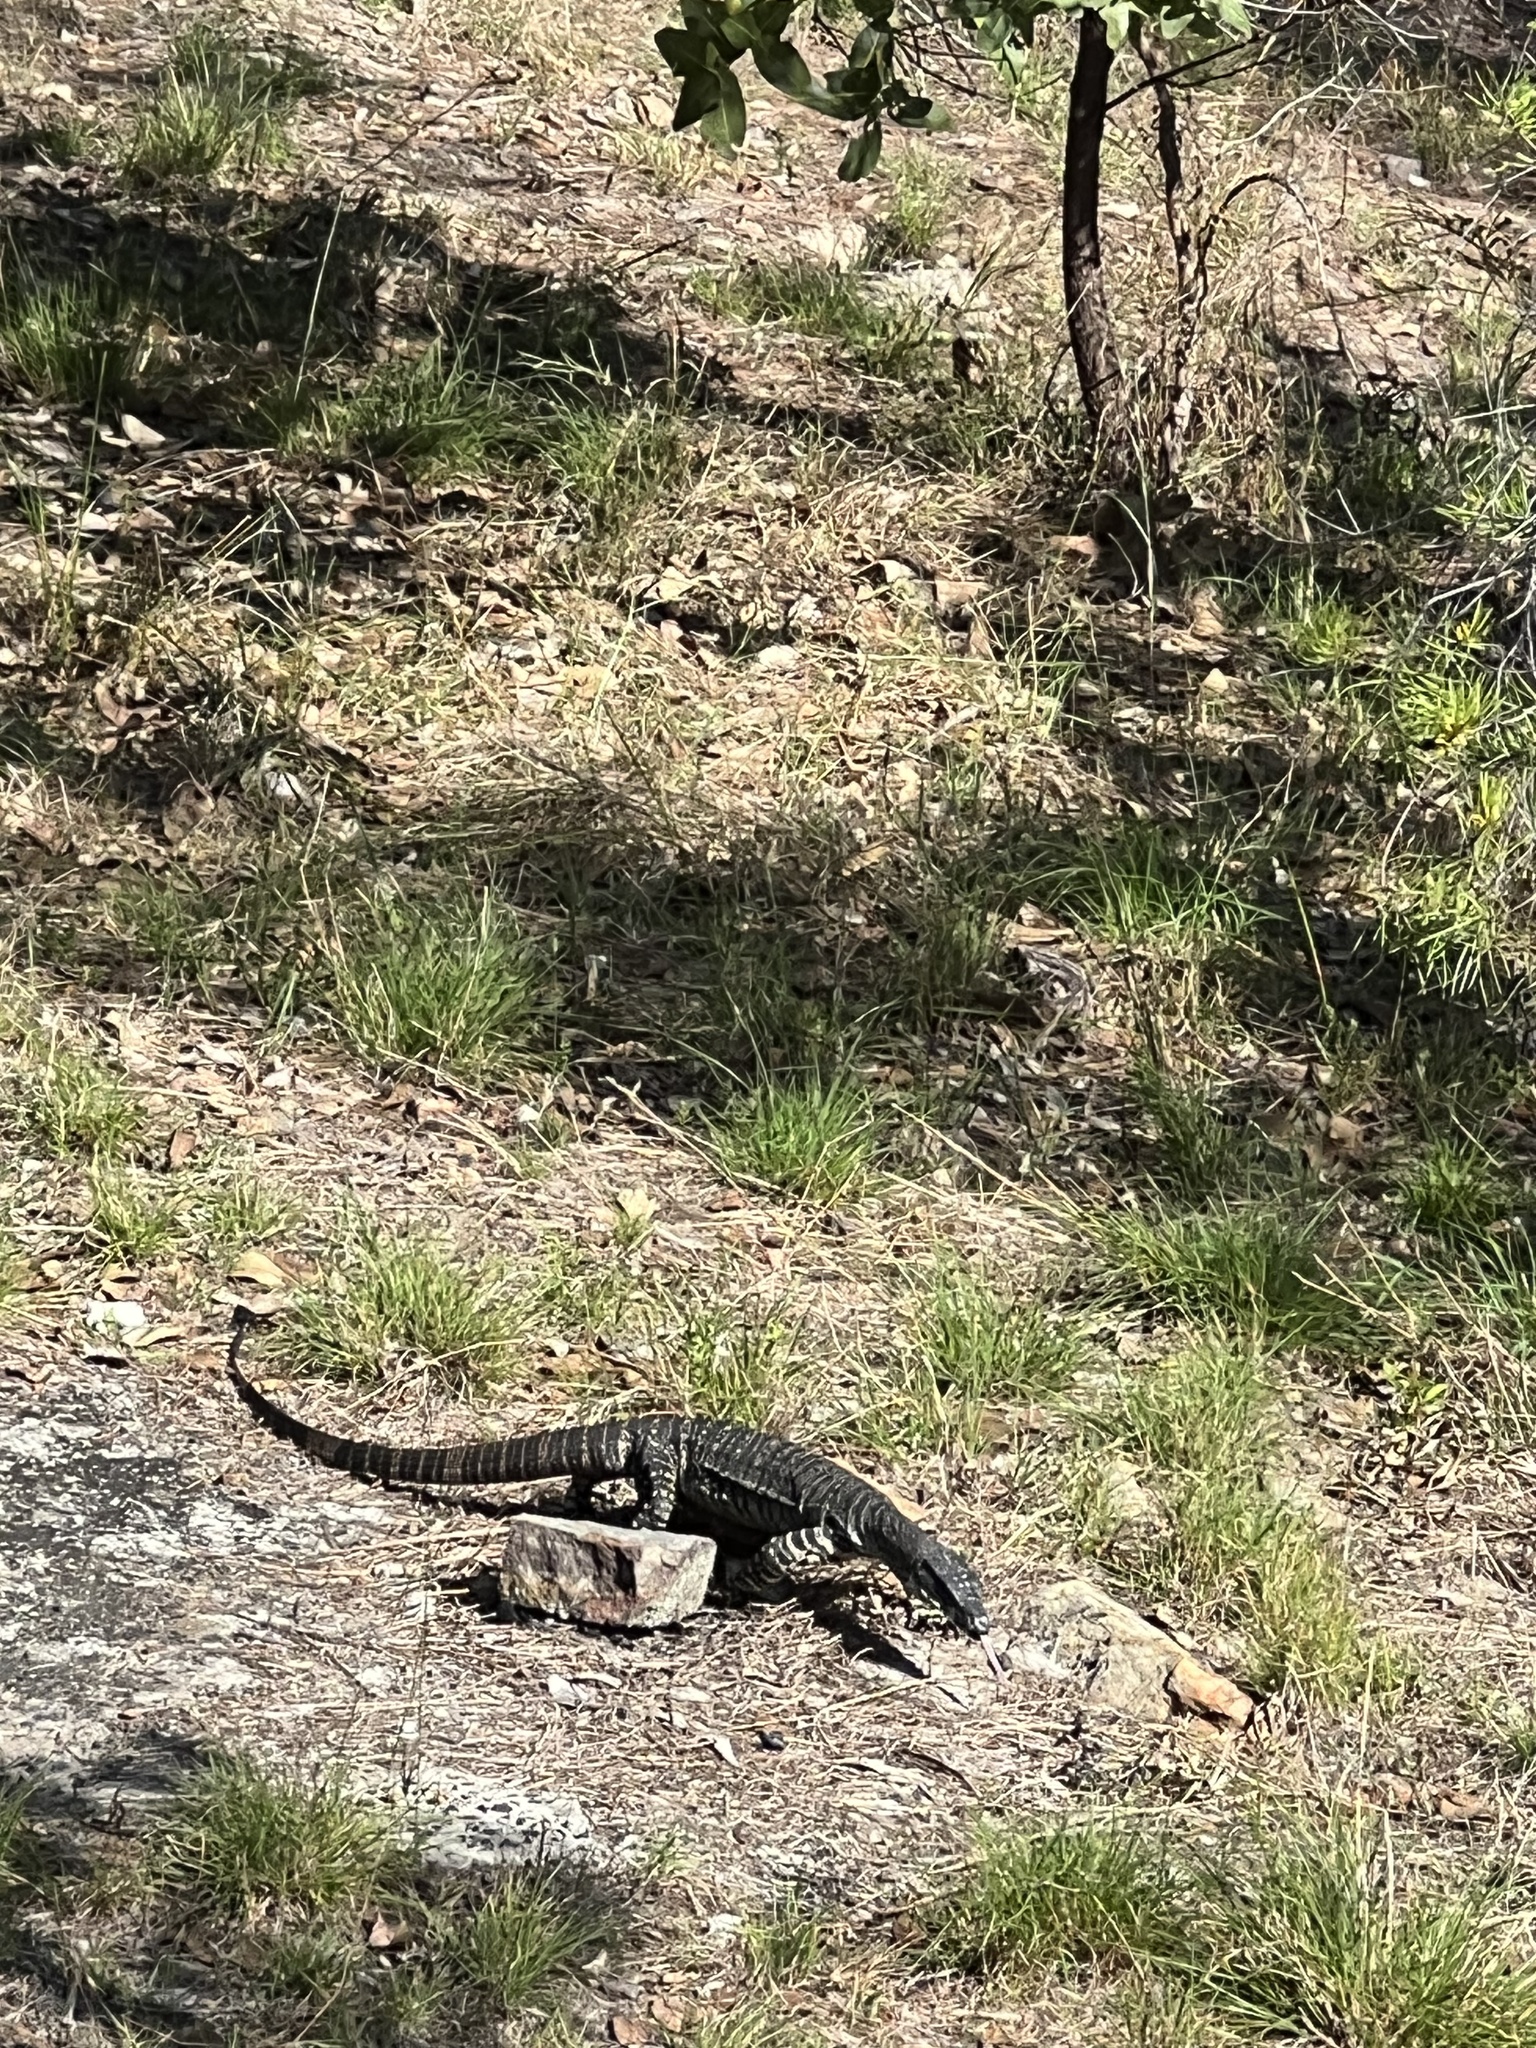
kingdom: Animalia
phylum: Chordata
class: Squamata
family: Varanidae
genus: Varanus
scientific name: Varanus varius
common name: Lace monitor
